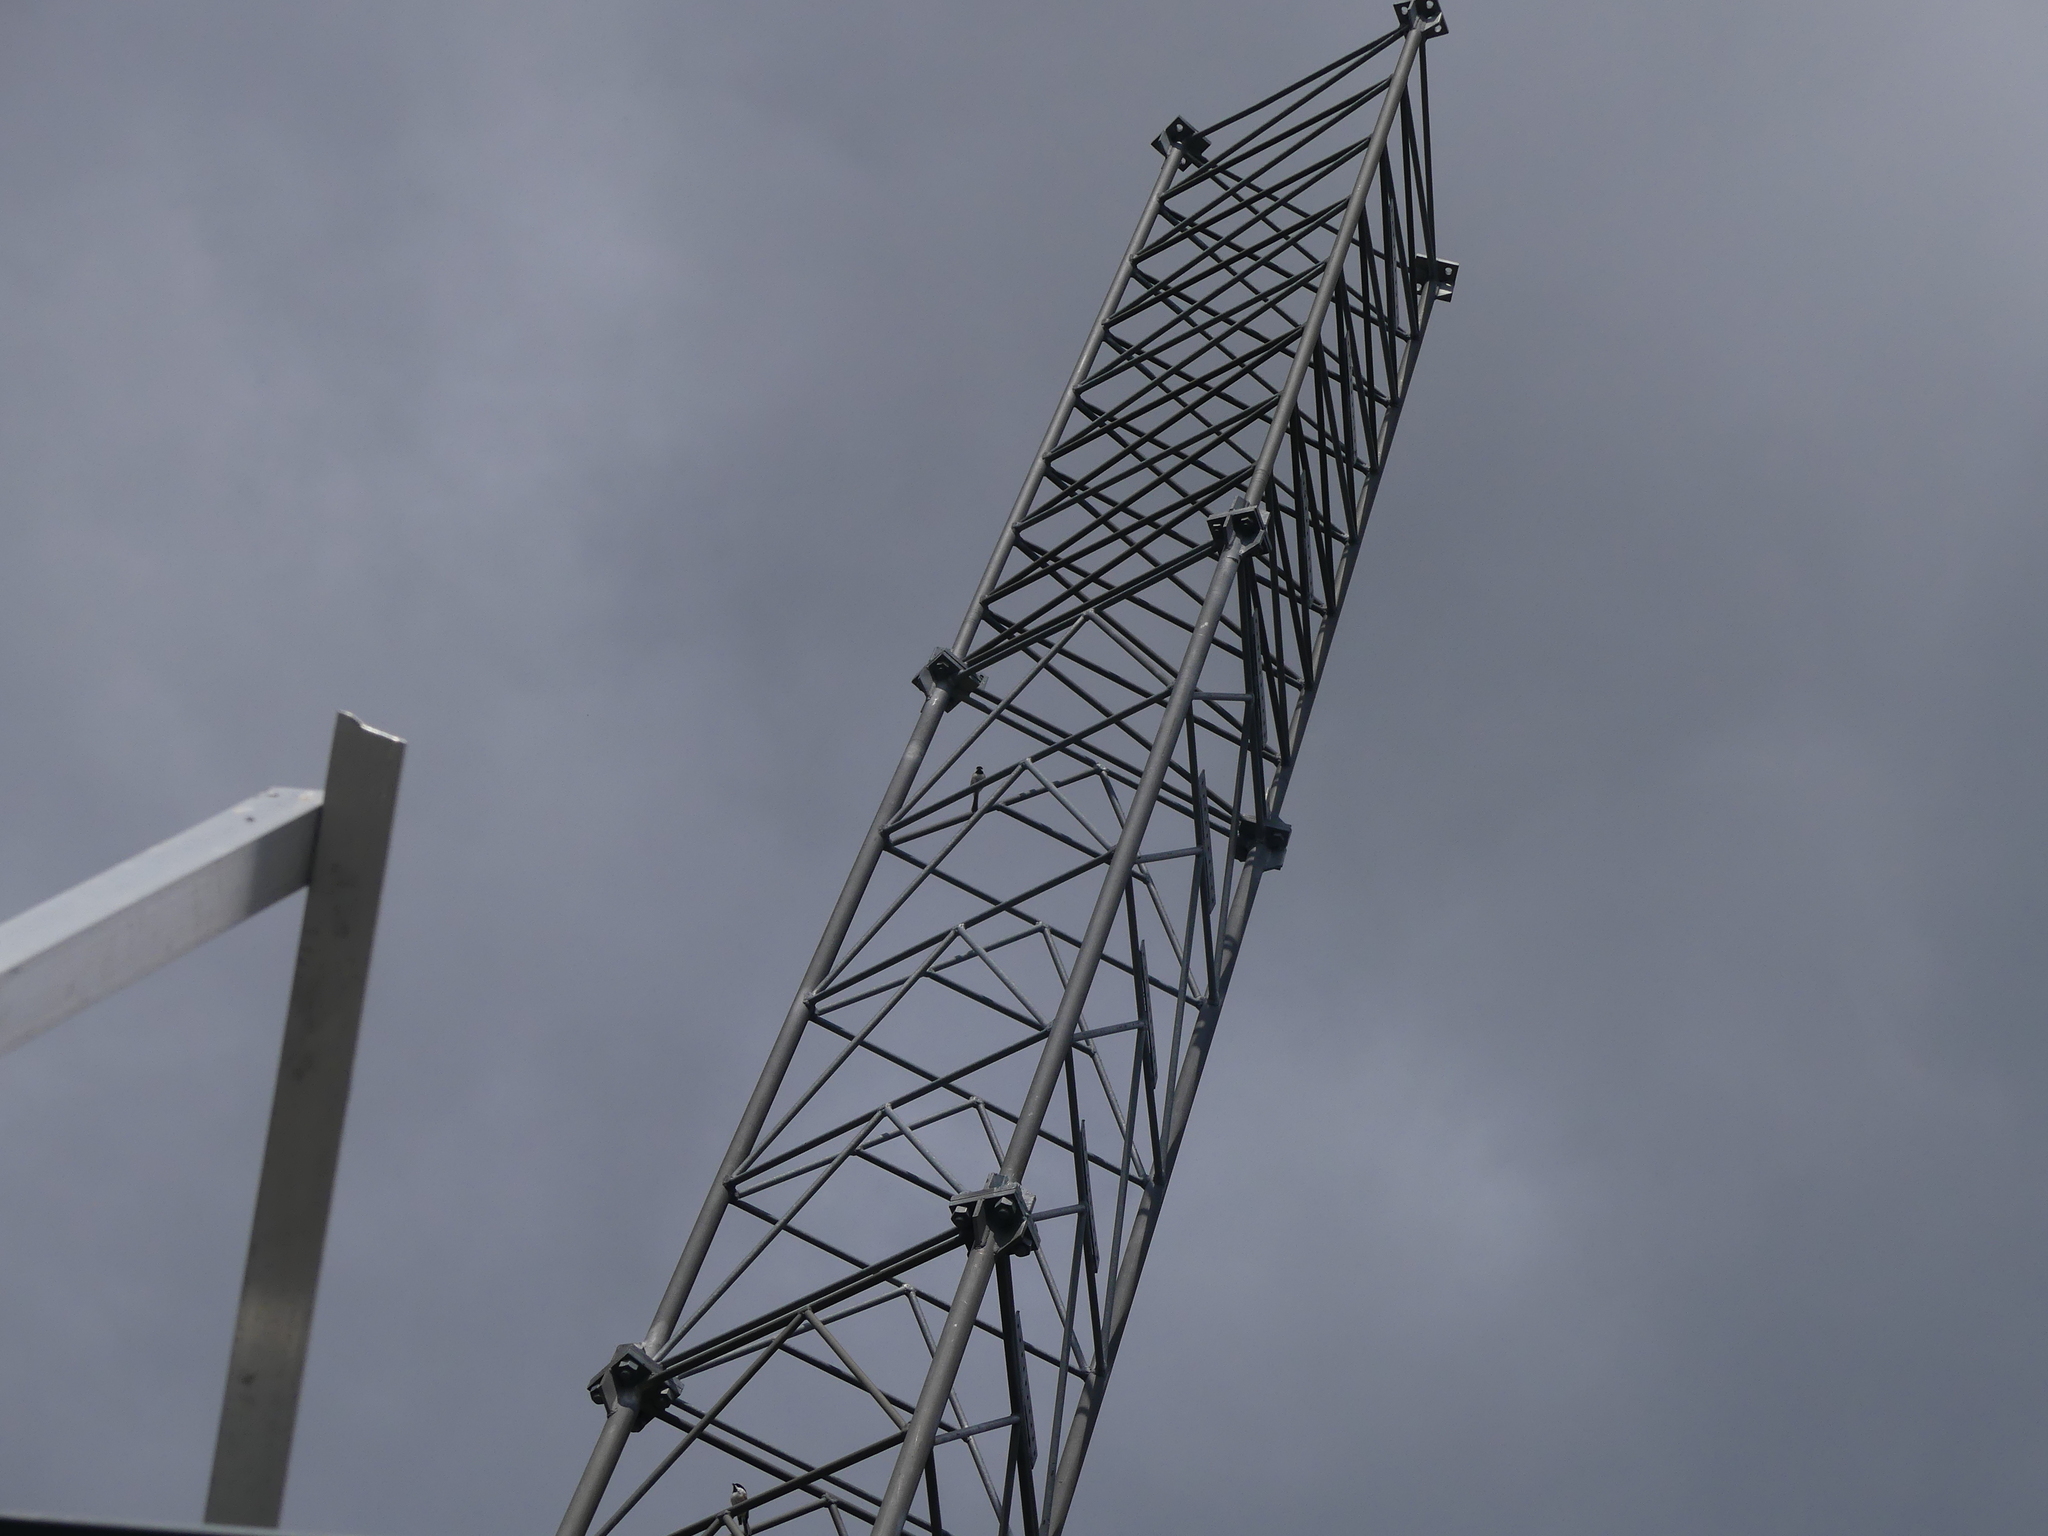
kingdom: Animalia
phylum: Chordata
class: Aves
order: Passeriformes
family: Paridae
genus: Poecile
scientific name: Poecile atricapillus
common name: Black-capped chickadee
